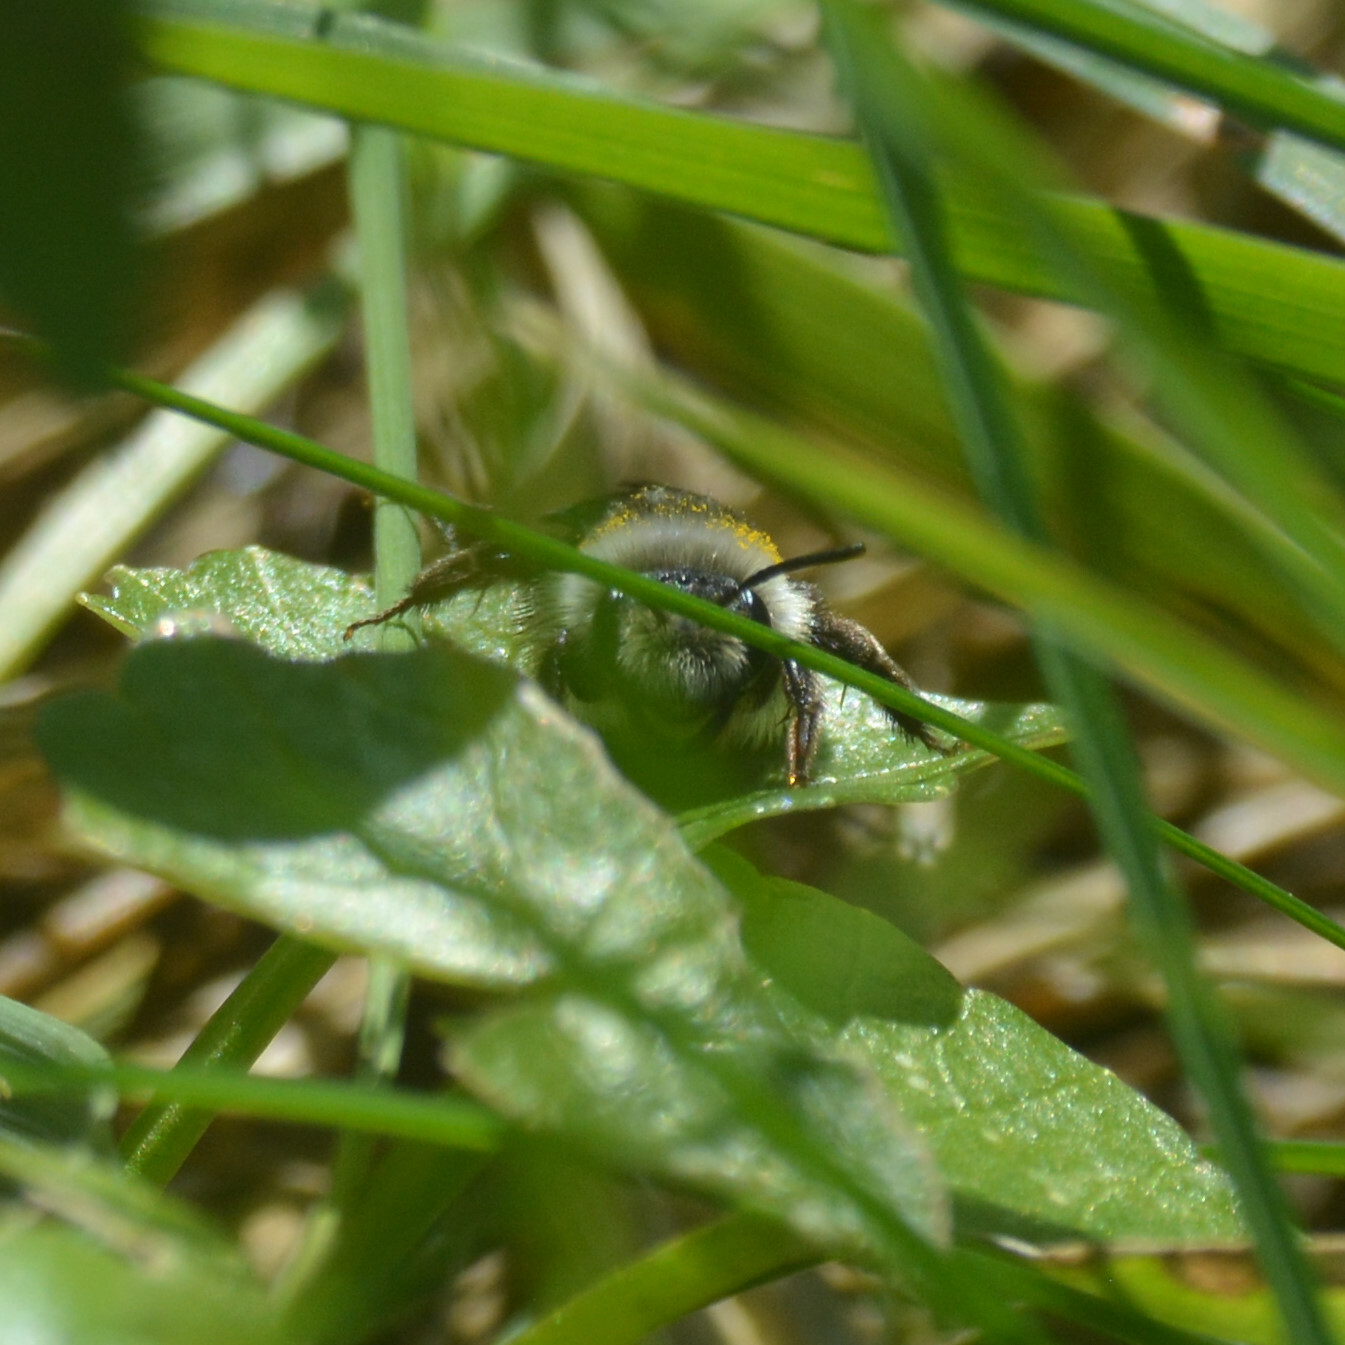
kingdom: Animalia
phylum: Arthropoda
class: Insecta
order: Hymenoptera
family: Andrenidae
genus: Andrena
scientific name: Andrena cineraria
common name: Ashy mining bee
